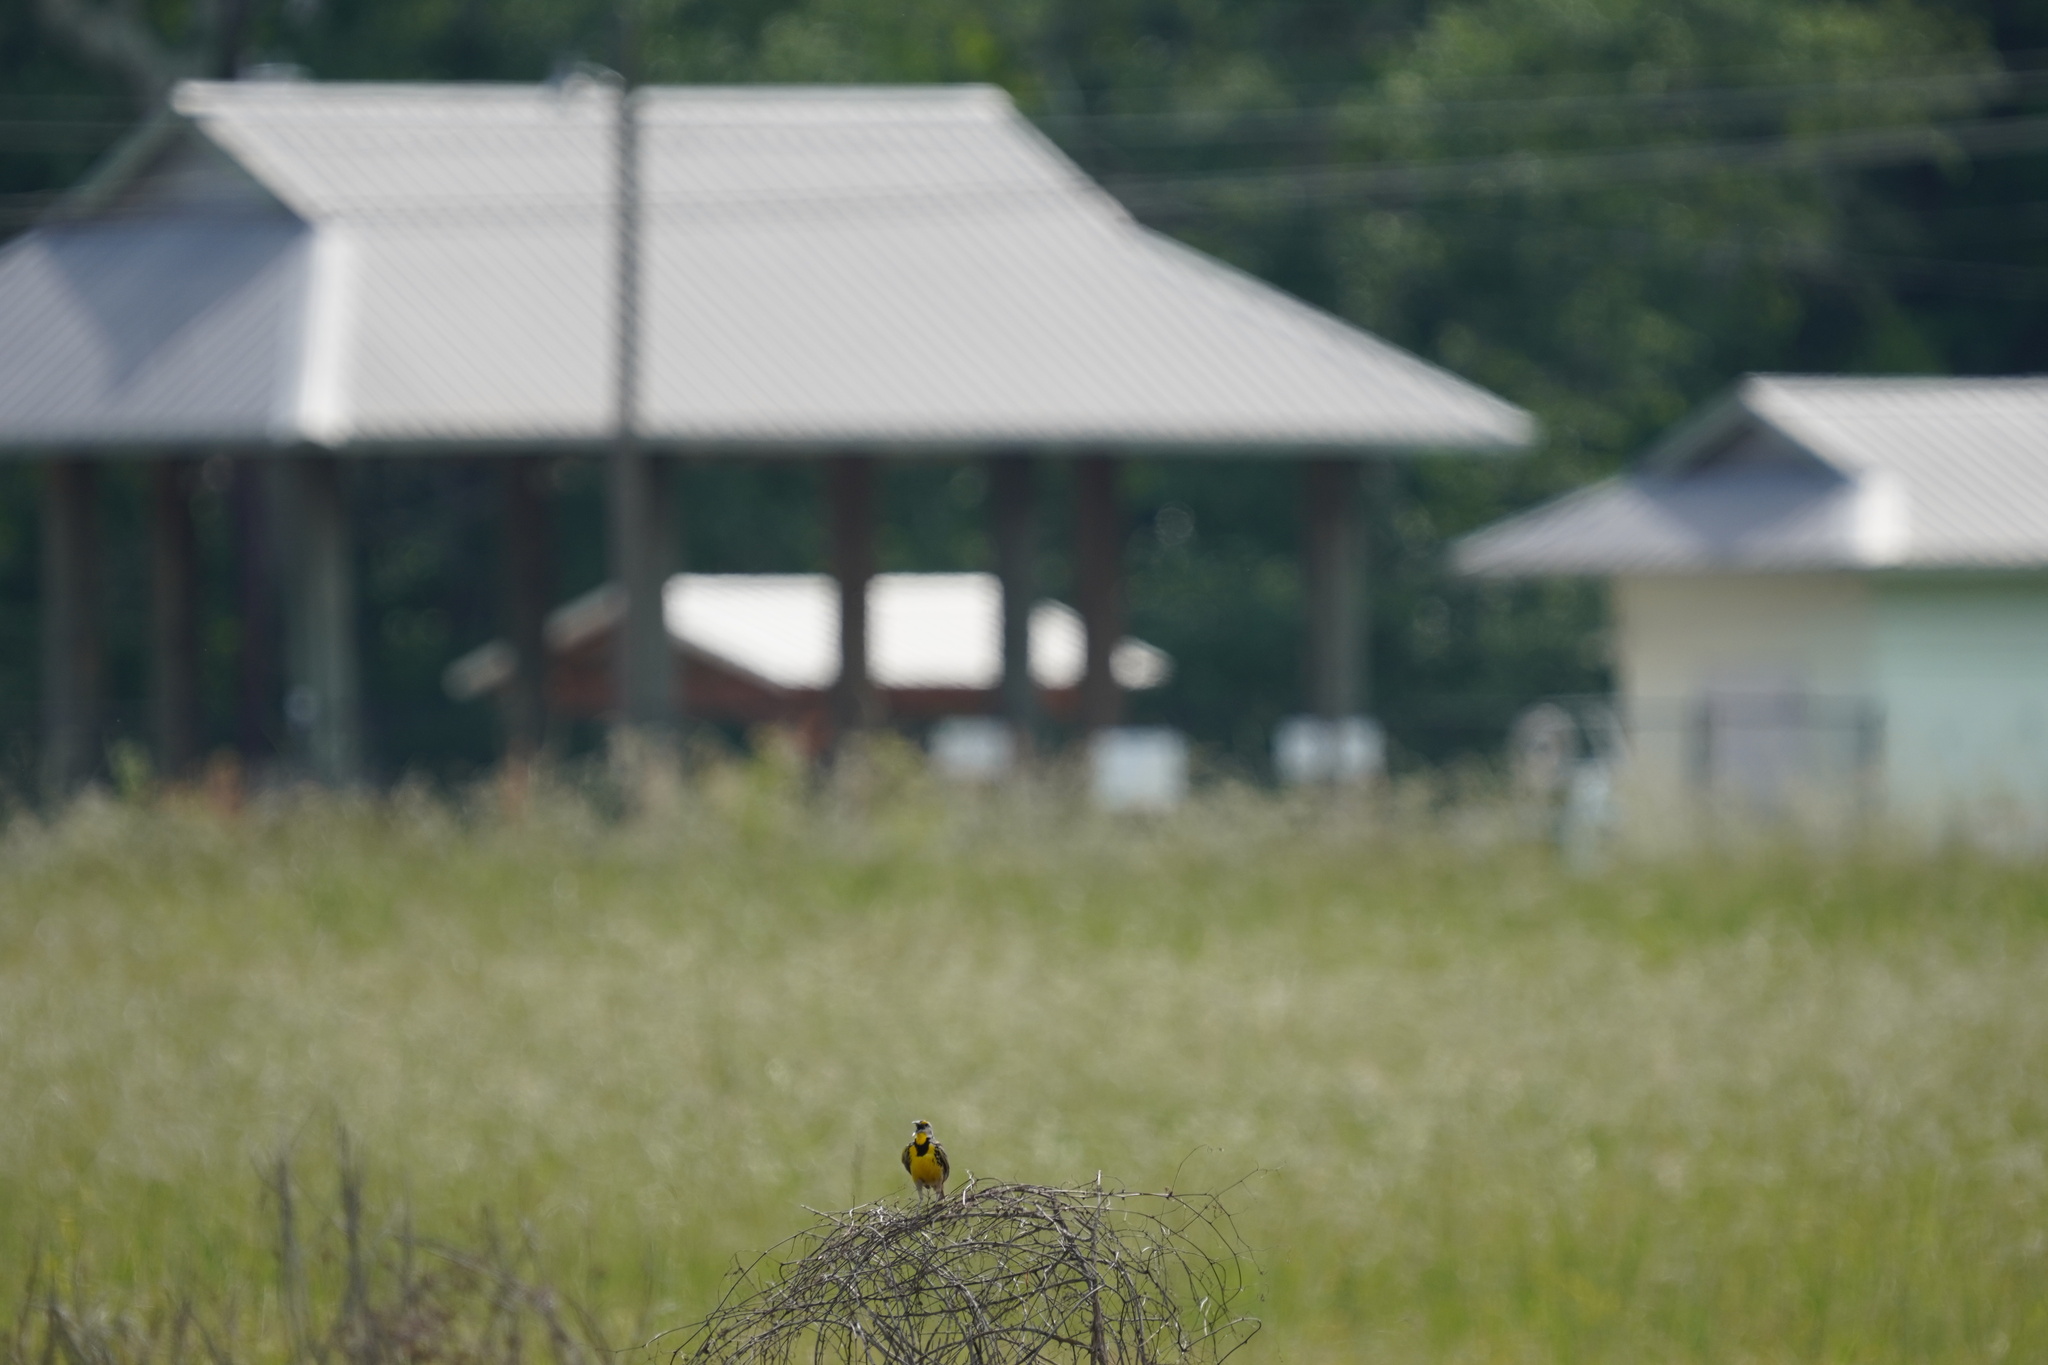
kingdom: Animalia
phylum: Chordata
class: Aves
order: Passeriformes
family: Icteridae
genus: Sturnella
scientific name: Sturnella magna
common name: Eastern meadowlark
